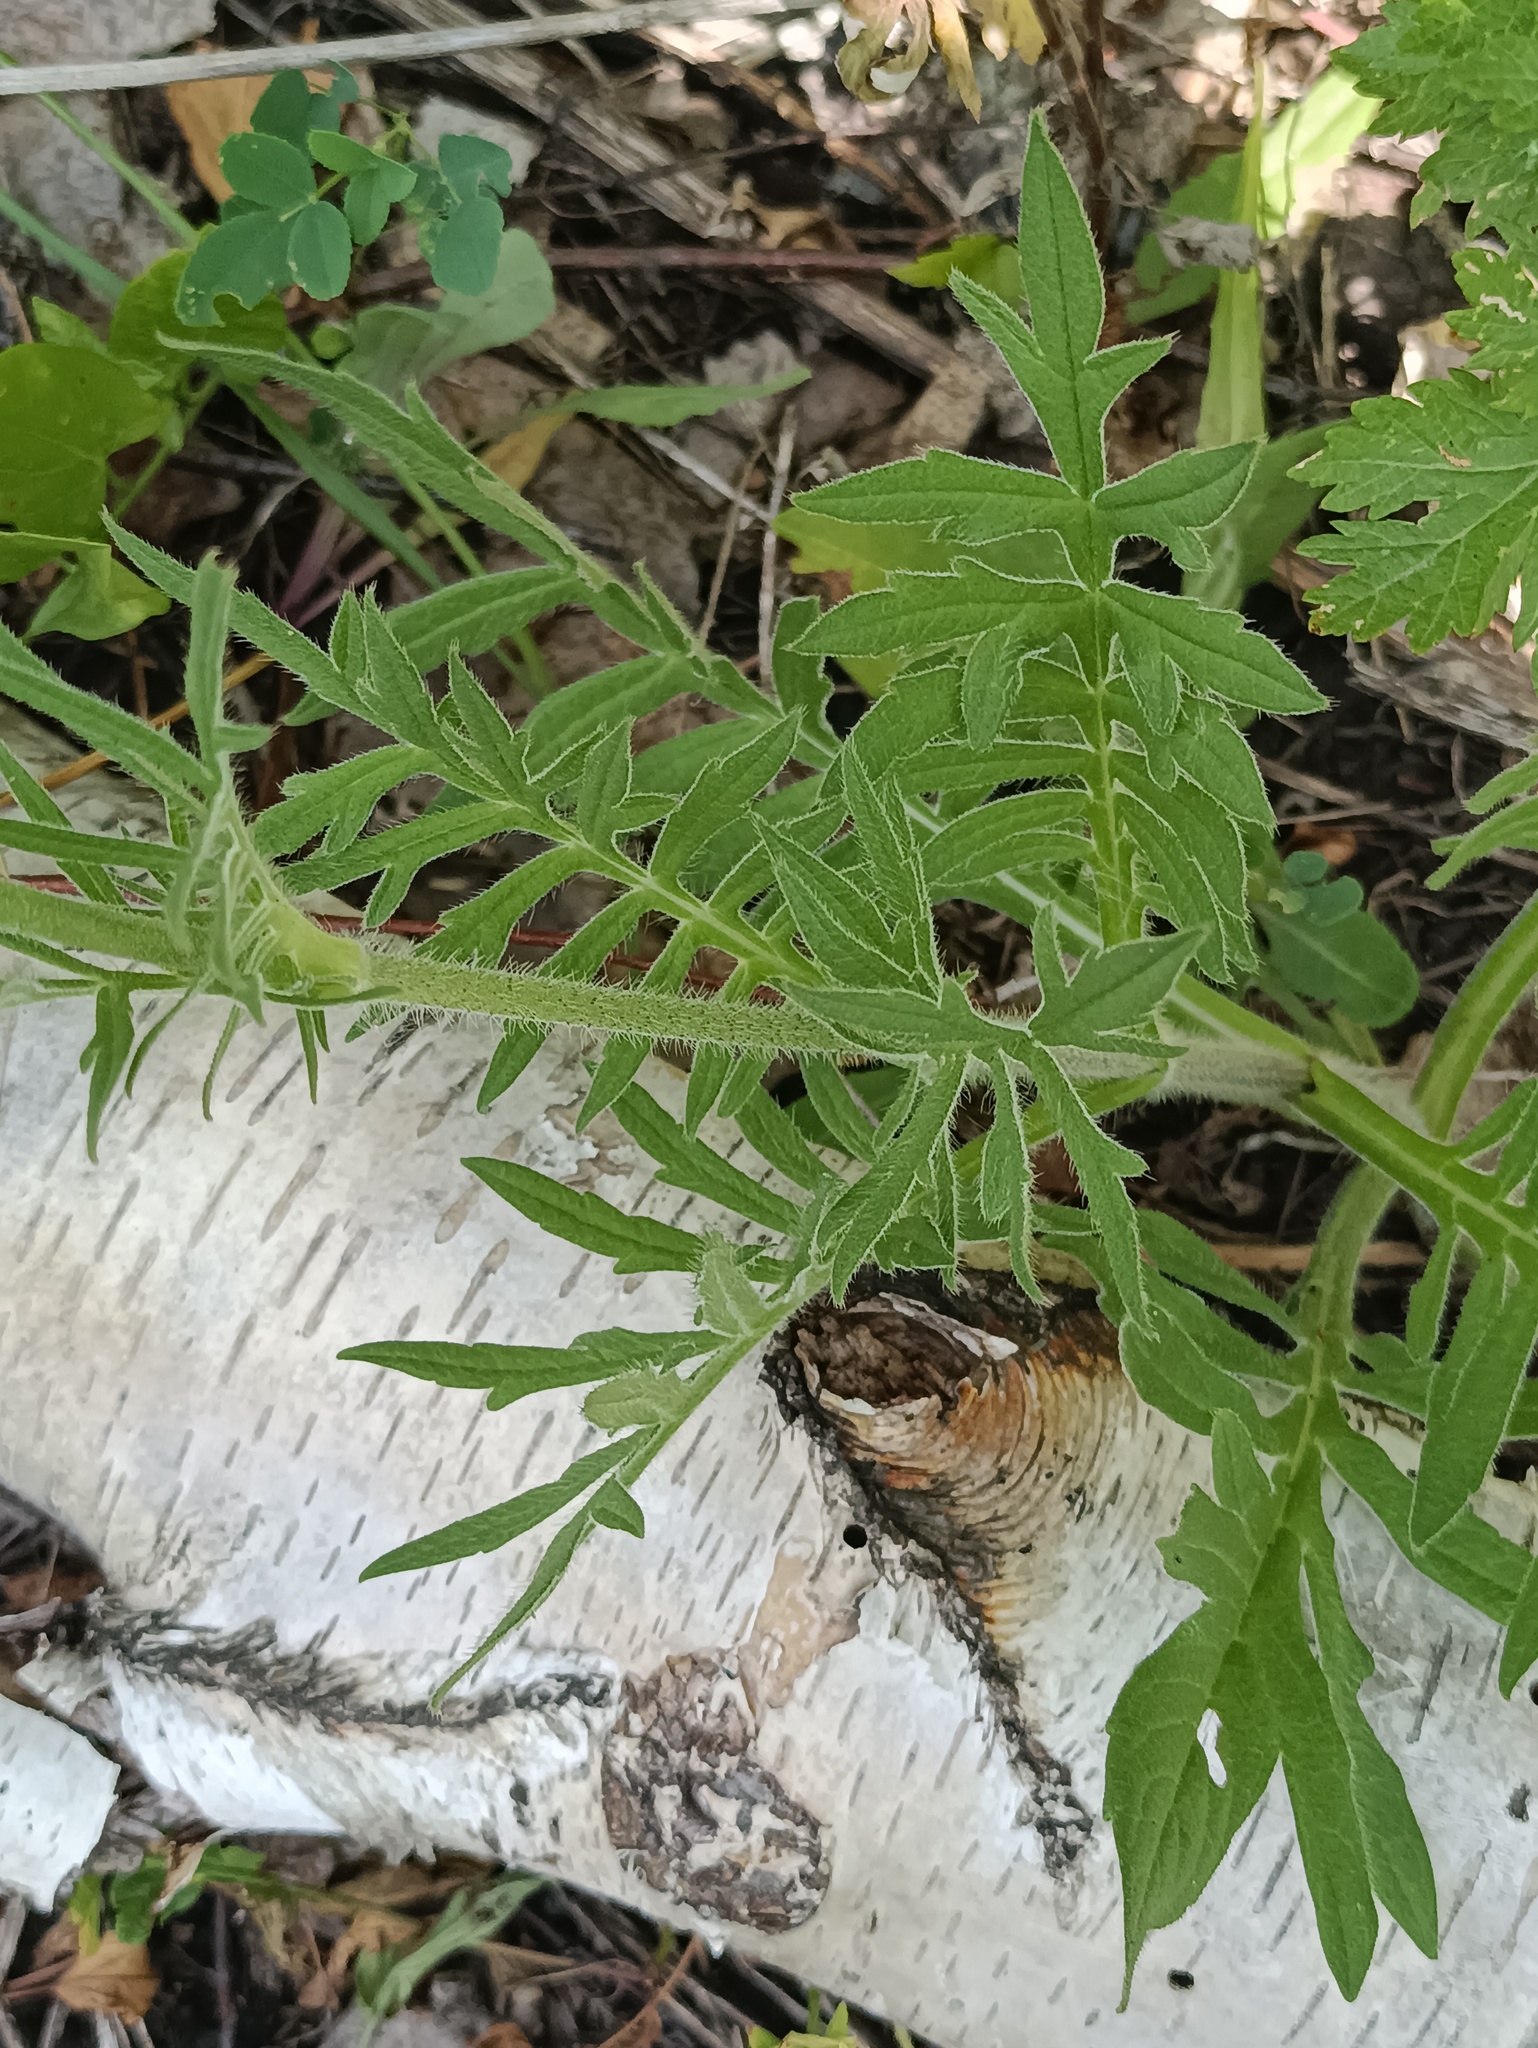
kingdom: Plantae
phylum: Tracheophyta
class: Magnoliopsida
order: Dipsacales
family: Caprifoliaceae
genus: Knautia
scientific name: Knautia arvensis
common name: Field scabiosa
